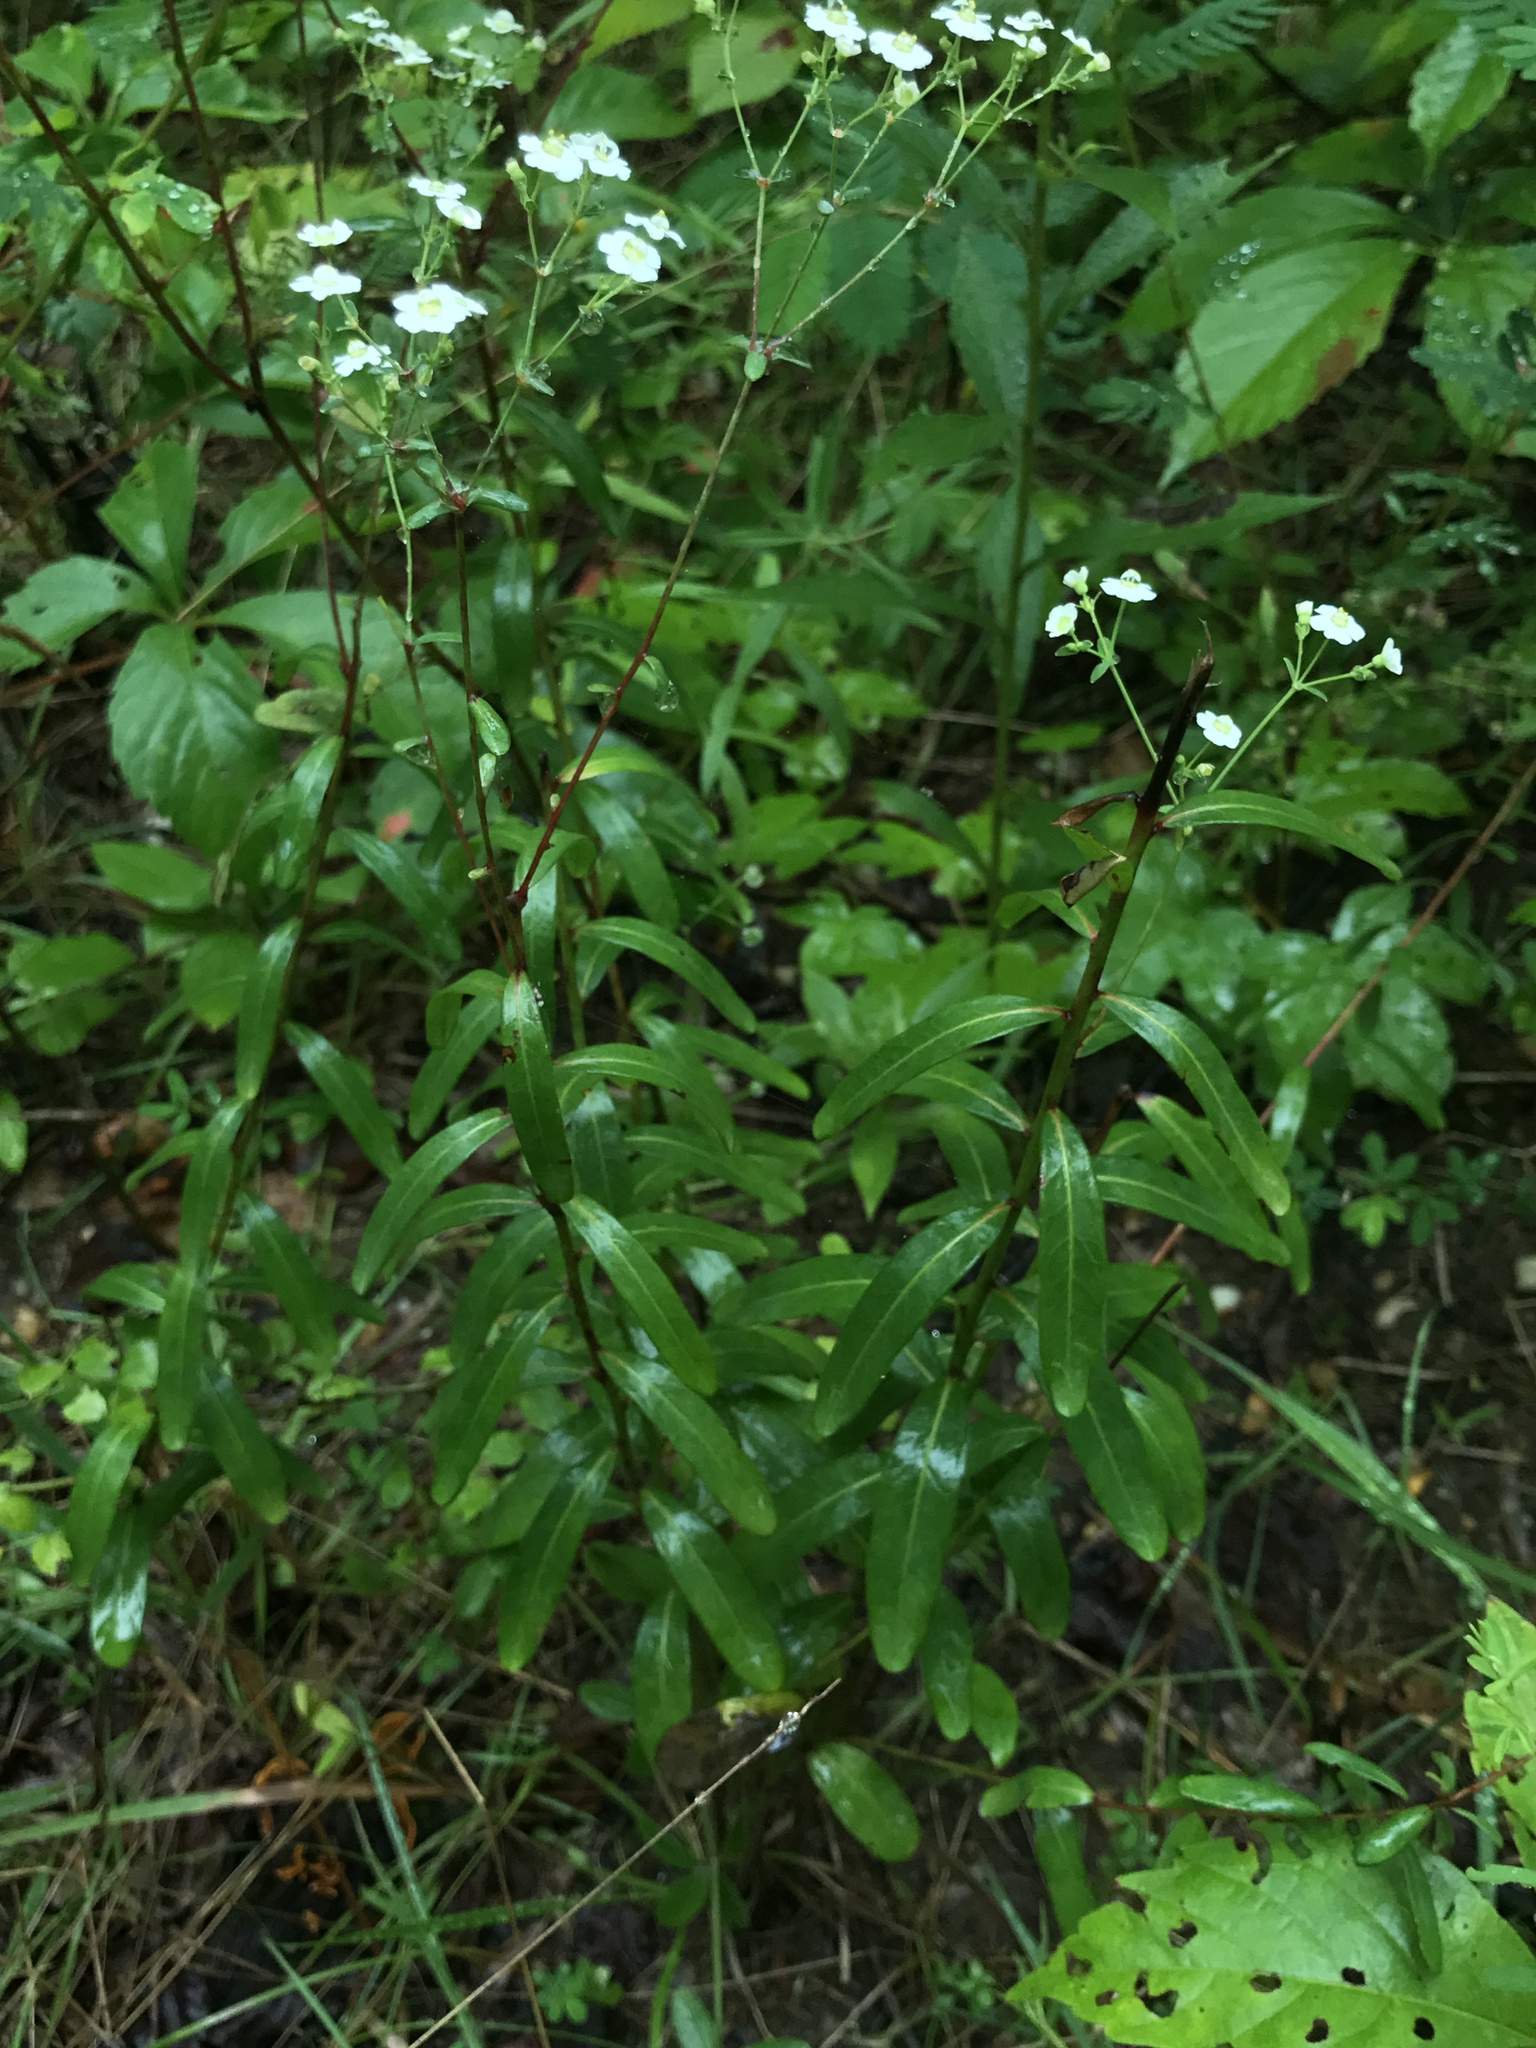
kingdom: Plantae
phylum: Tracheophyta
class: Magnoliopsida
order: Malpighiales
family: Euphorbiaceae
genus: Euphorbia
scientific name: Euphorbia corollata
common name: Flowering spurge
